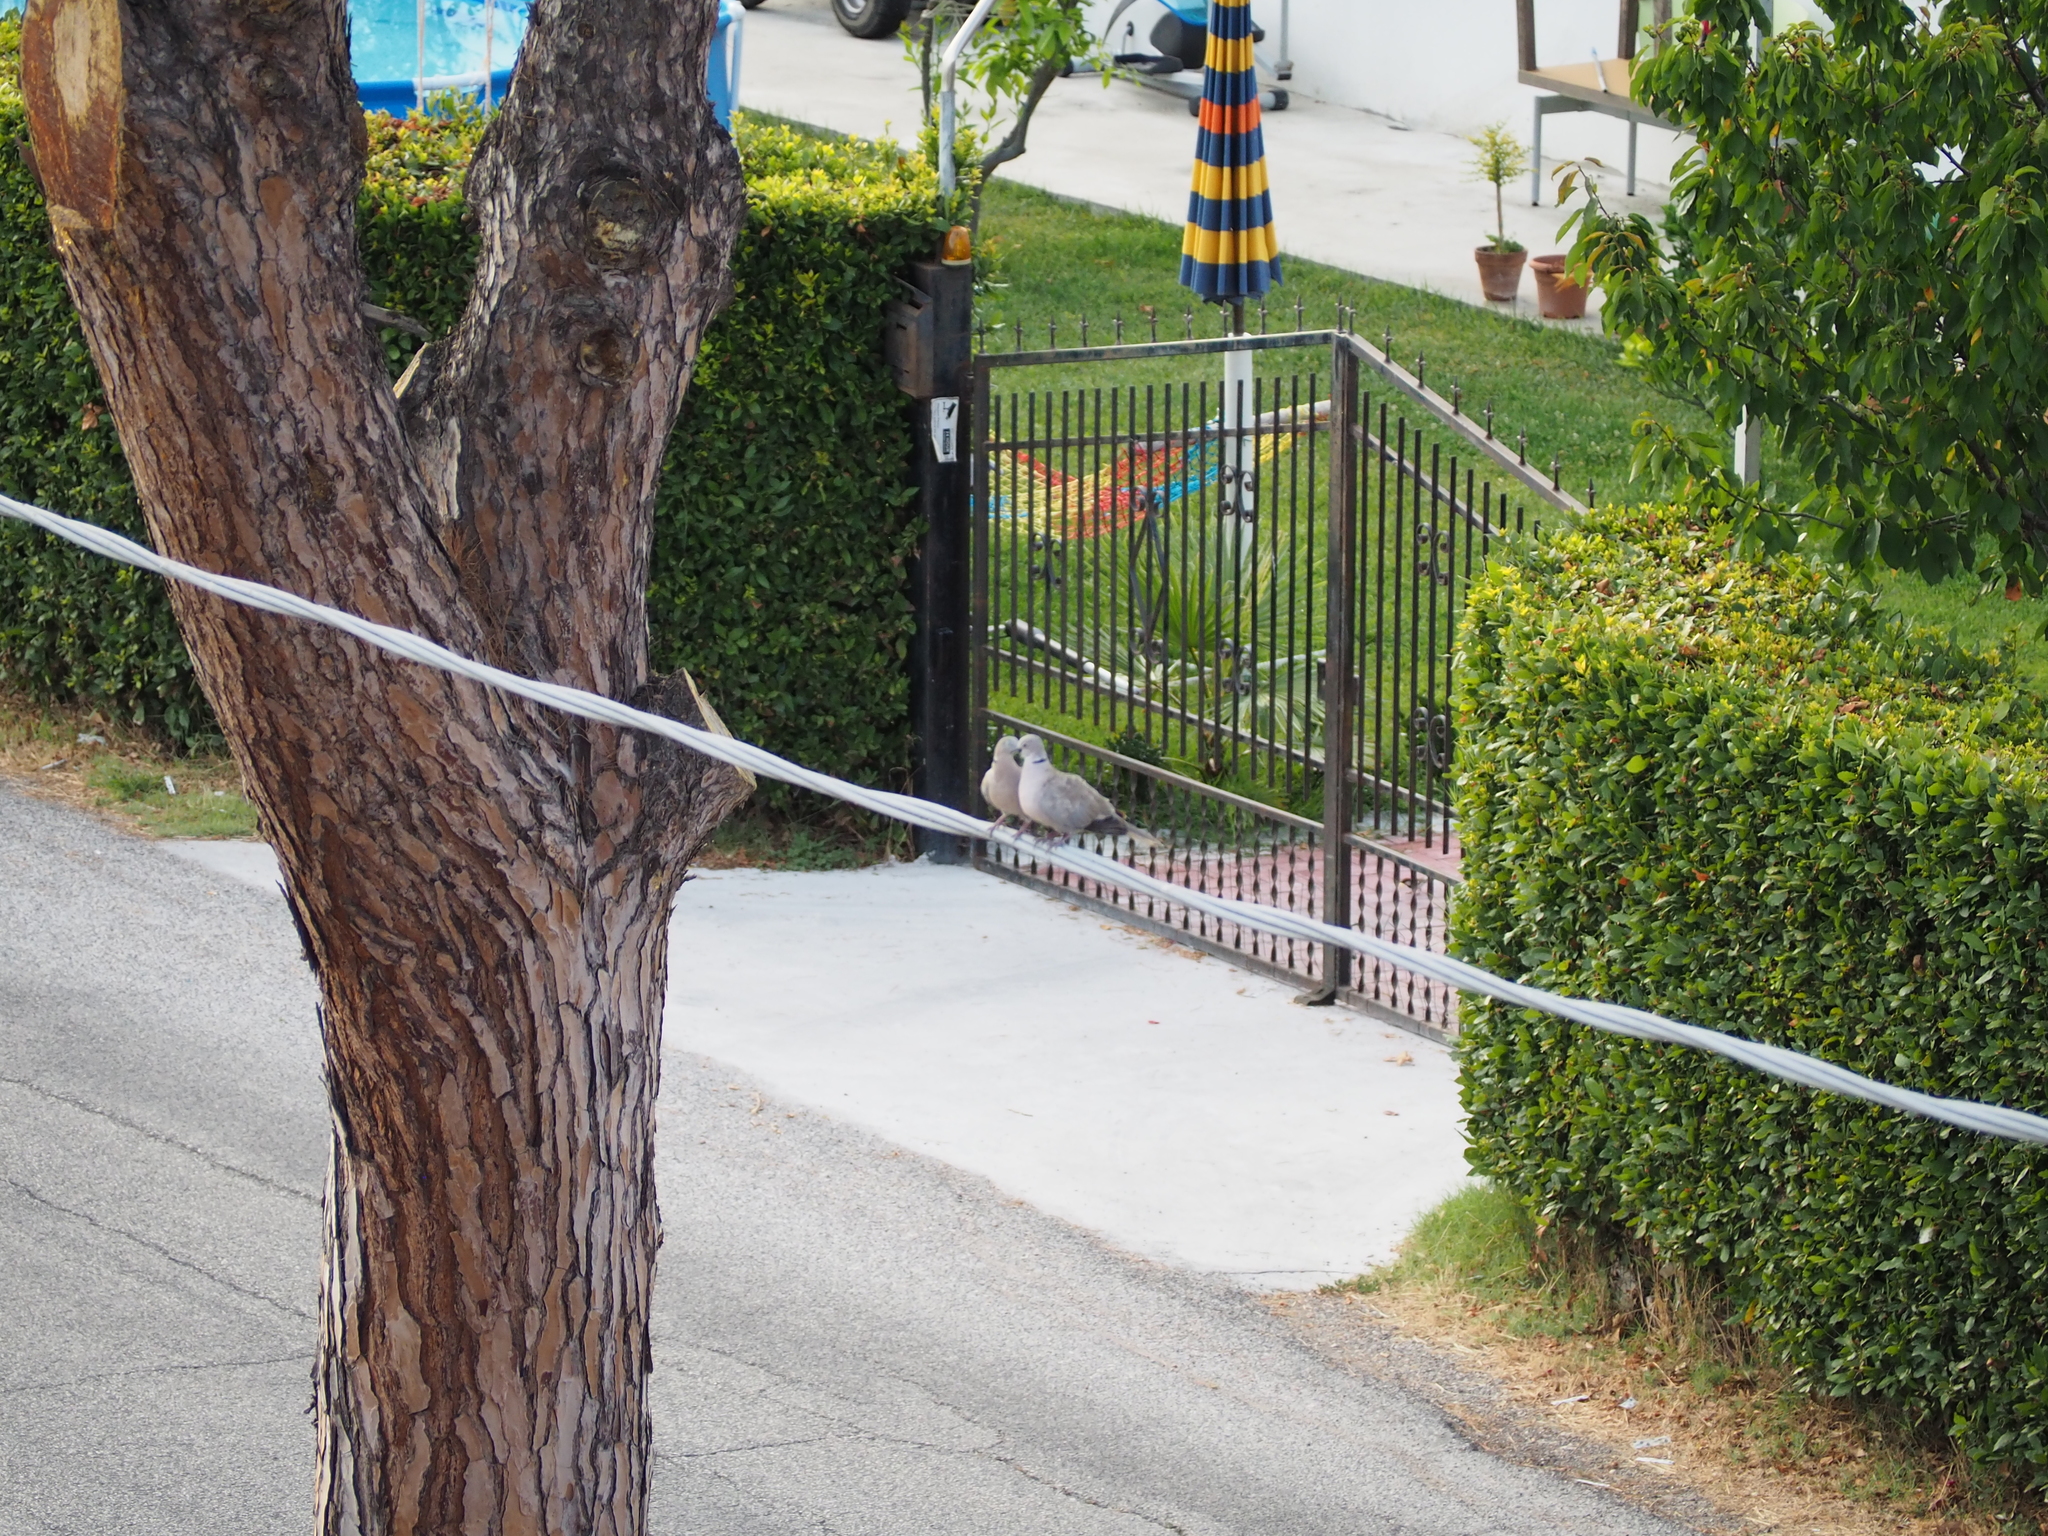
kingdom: Animalia
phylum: Chordata
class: Aves
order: Columbiformes
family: Columbidae
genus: Streptopelia
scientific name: Streptopelia decaocto
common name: Eurasian collared dove
